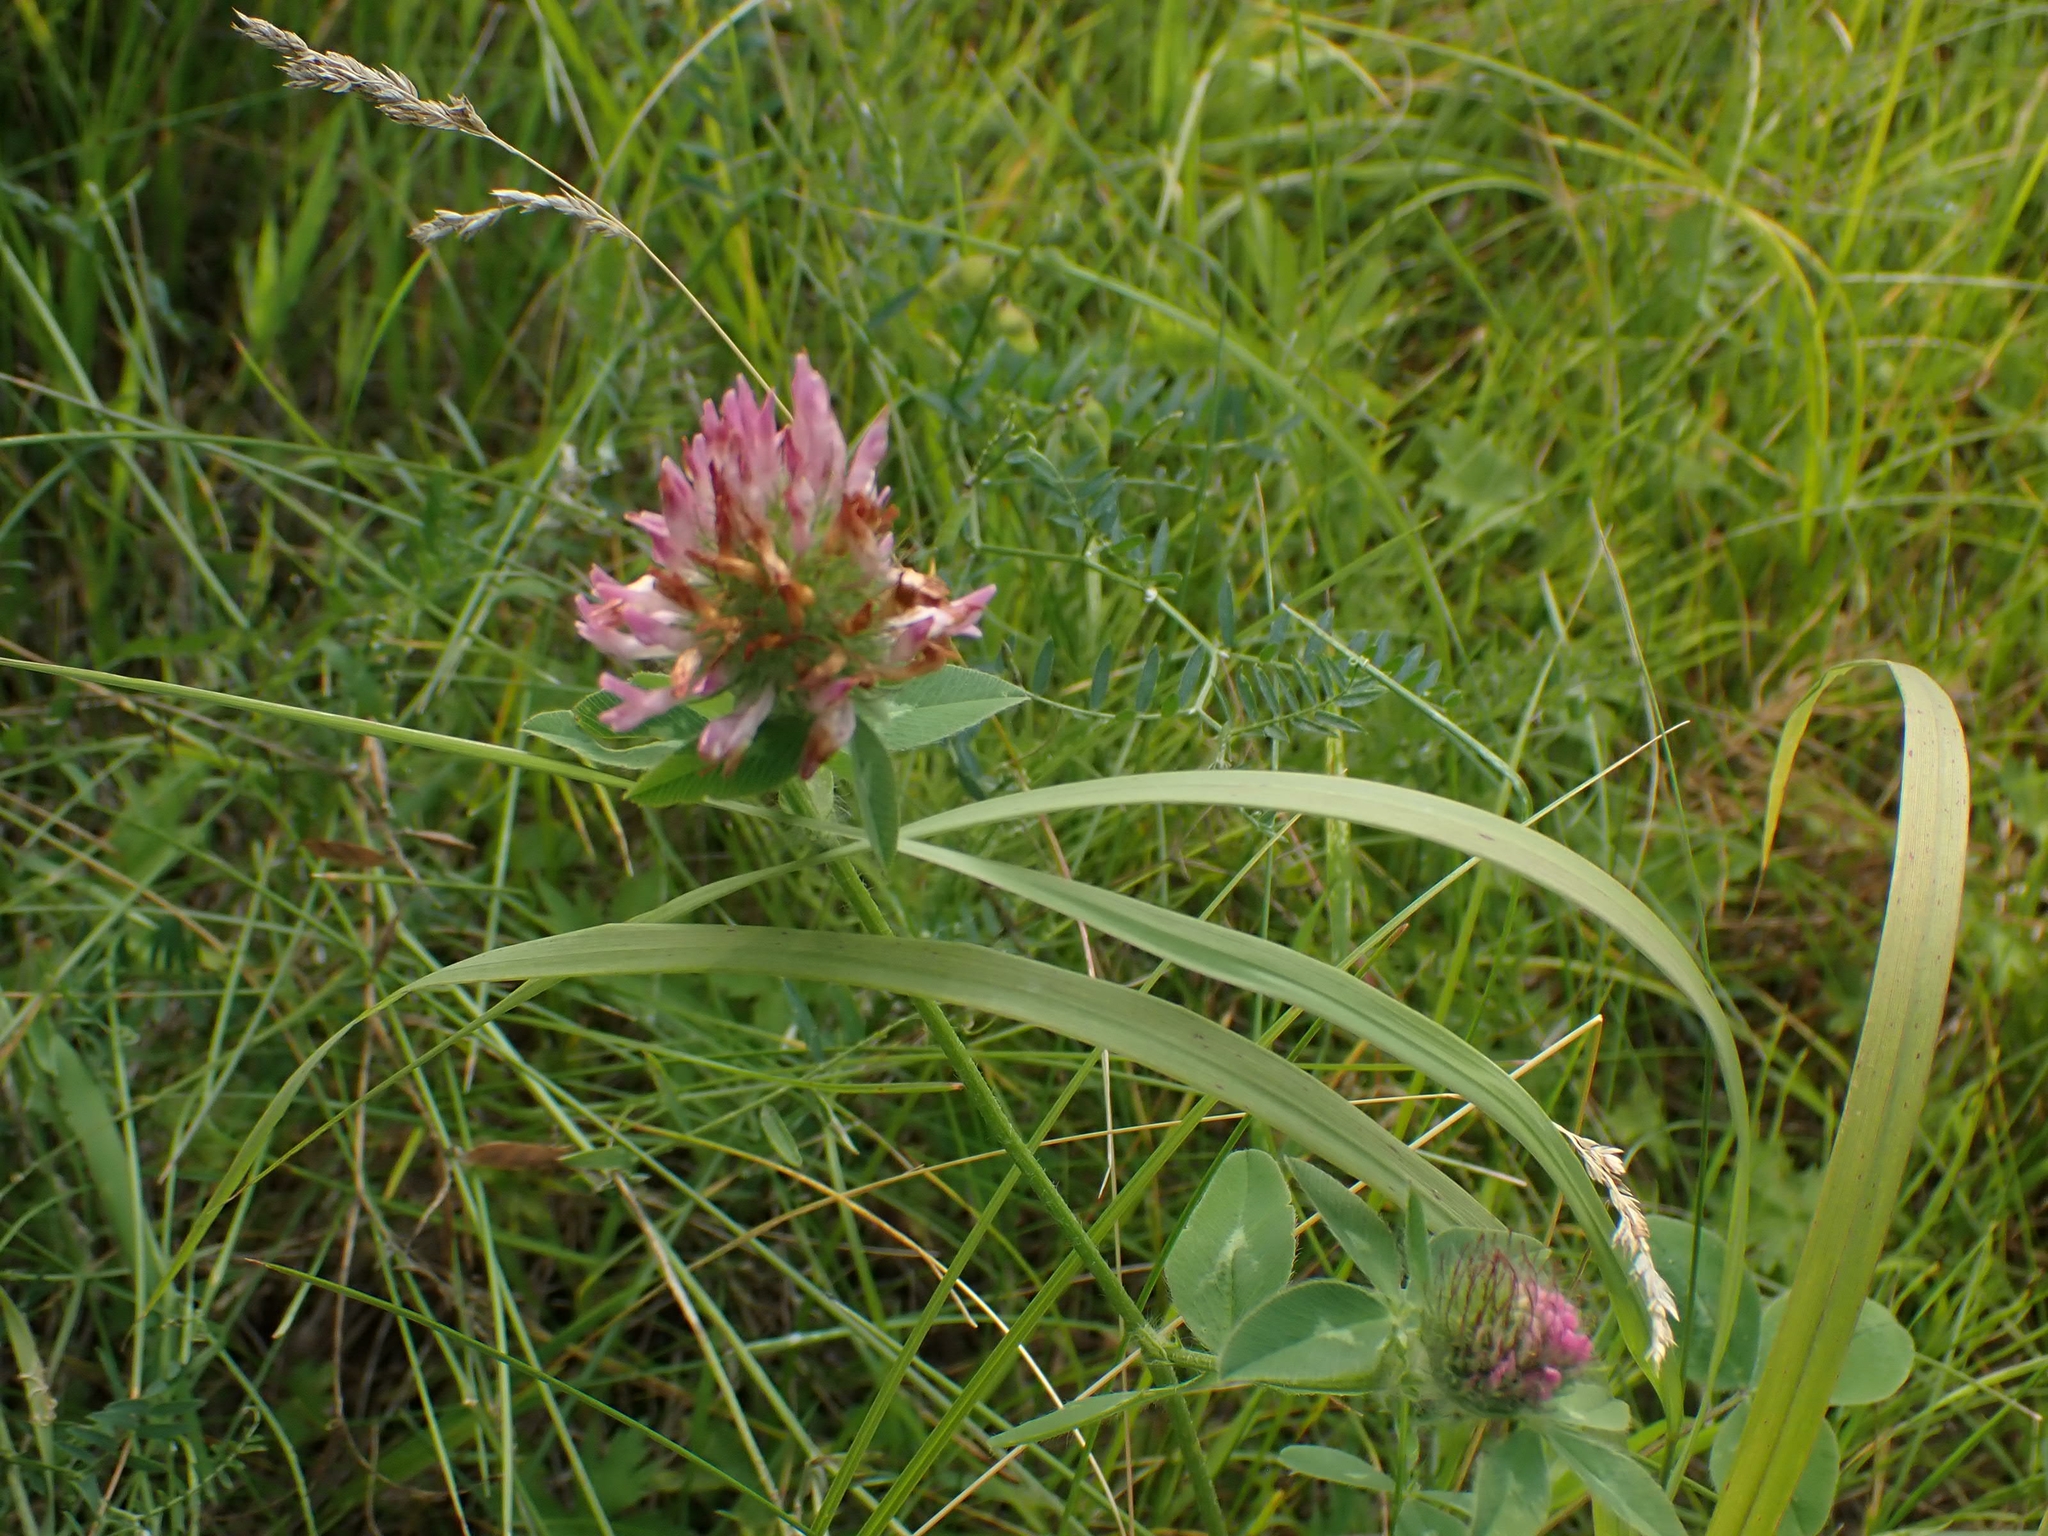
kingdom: Plantae
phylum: Tracheophyta
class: Magnoliopsida
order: Fabales
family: Fabaceae
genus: Trifolium
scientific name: Trifolium pratense
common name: Red clover
